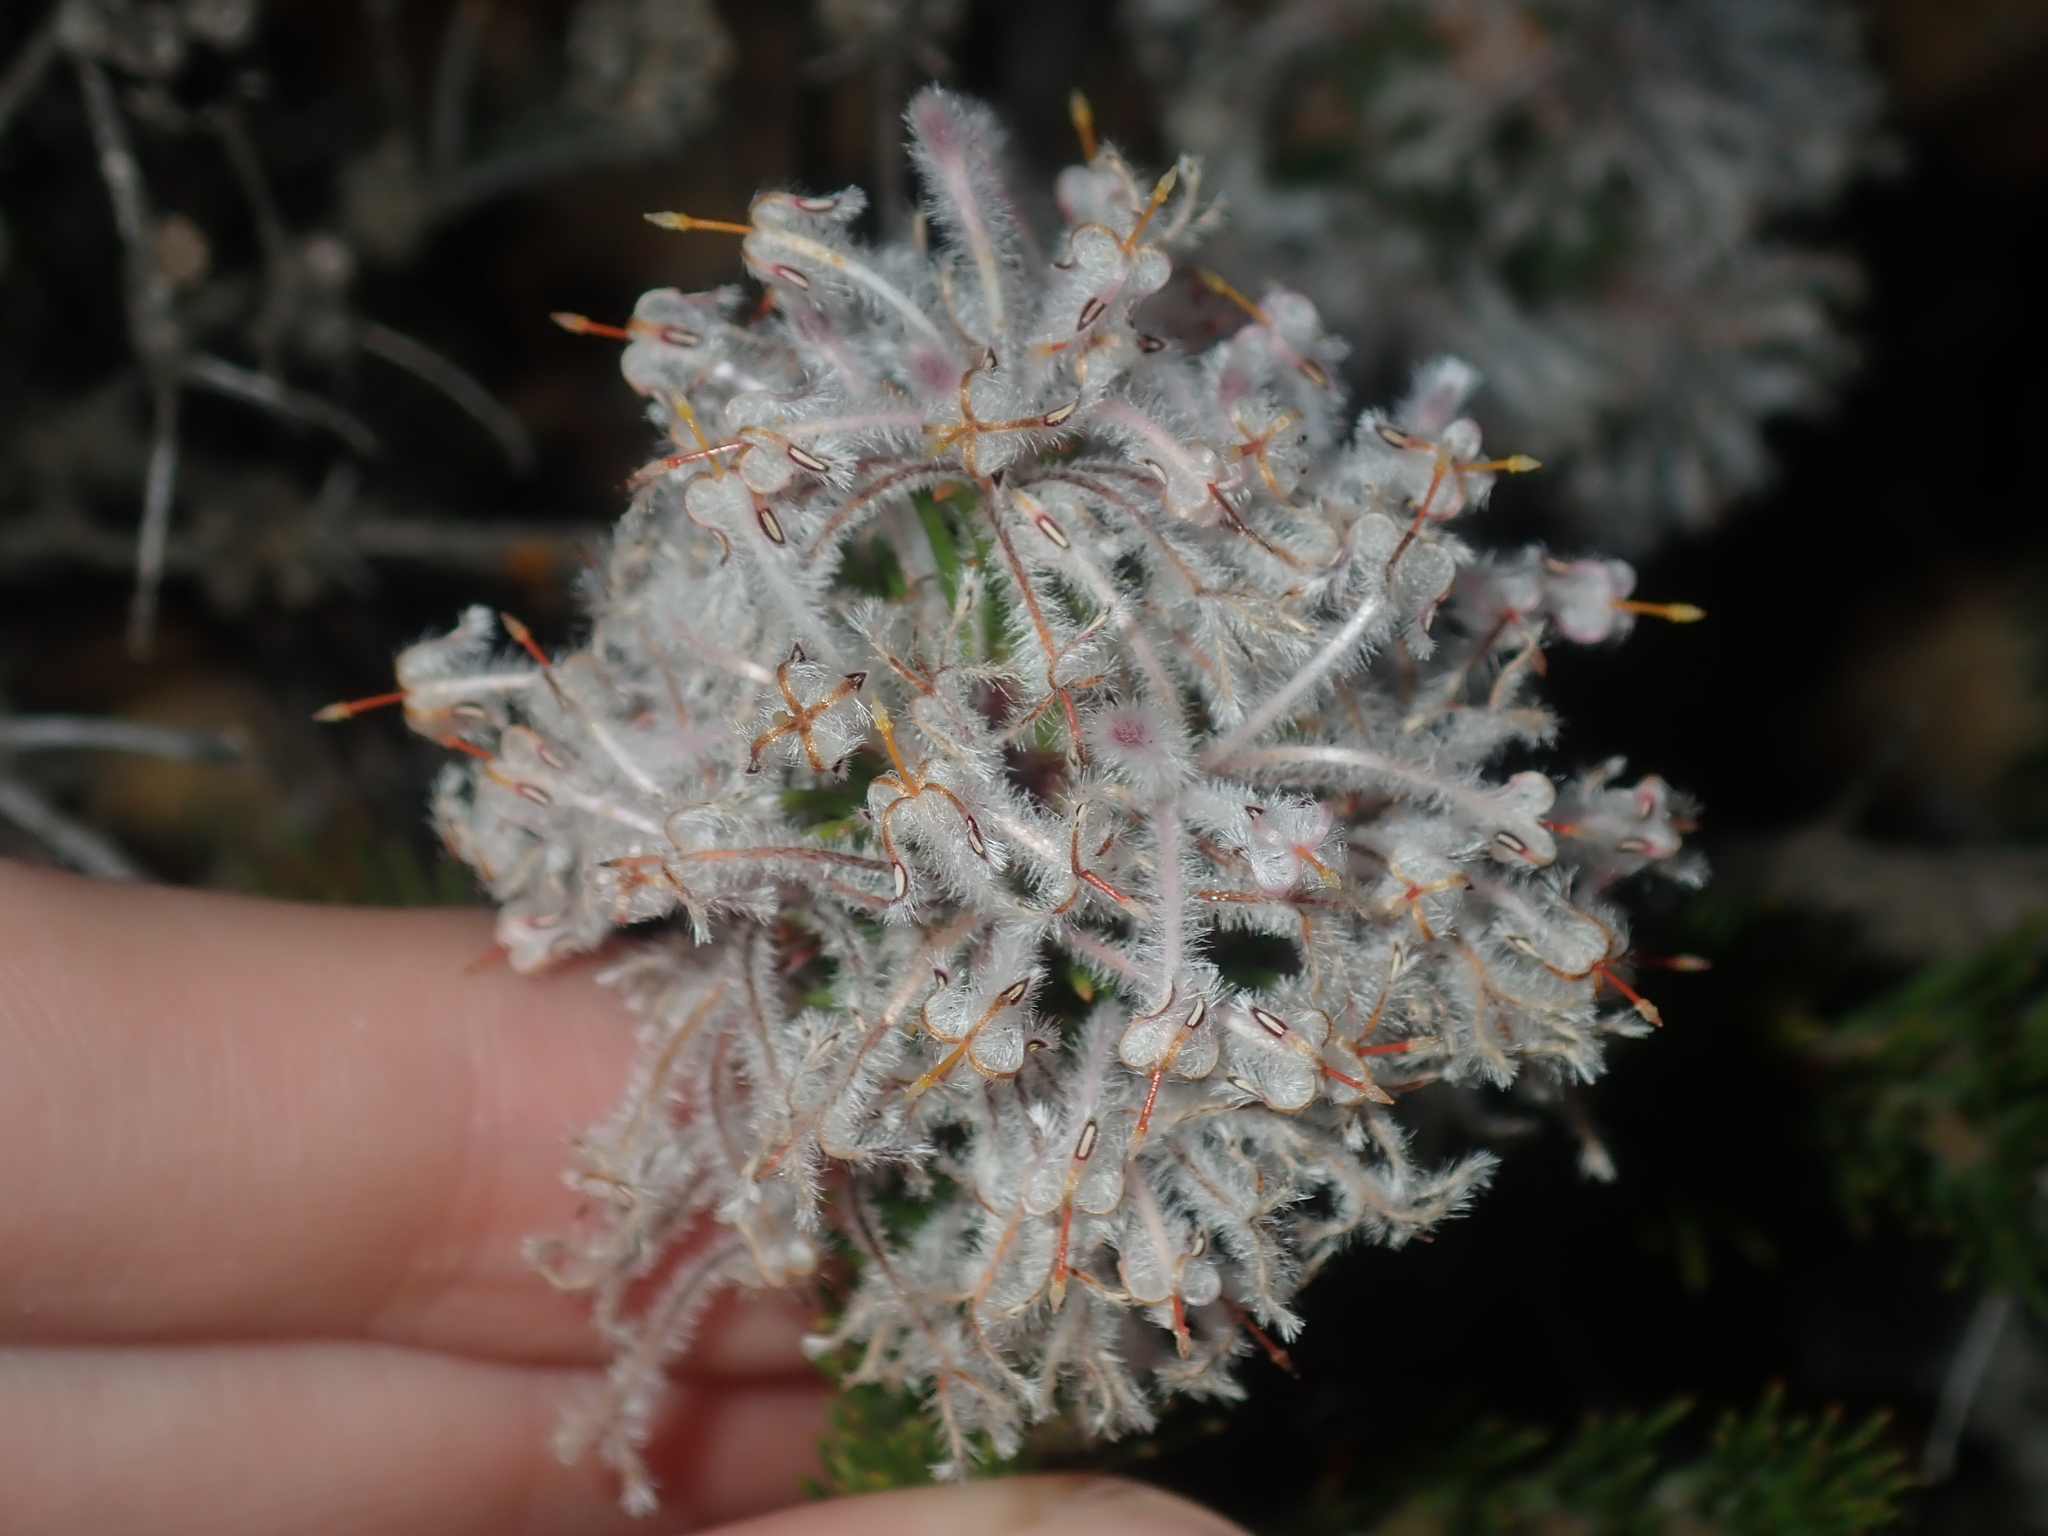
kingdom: Plantae
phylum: Tracheophyta
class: Magnoliopsida
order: Proteales
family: Proteaceae
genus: Isopogon
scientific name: Isopogon inconspicuus
